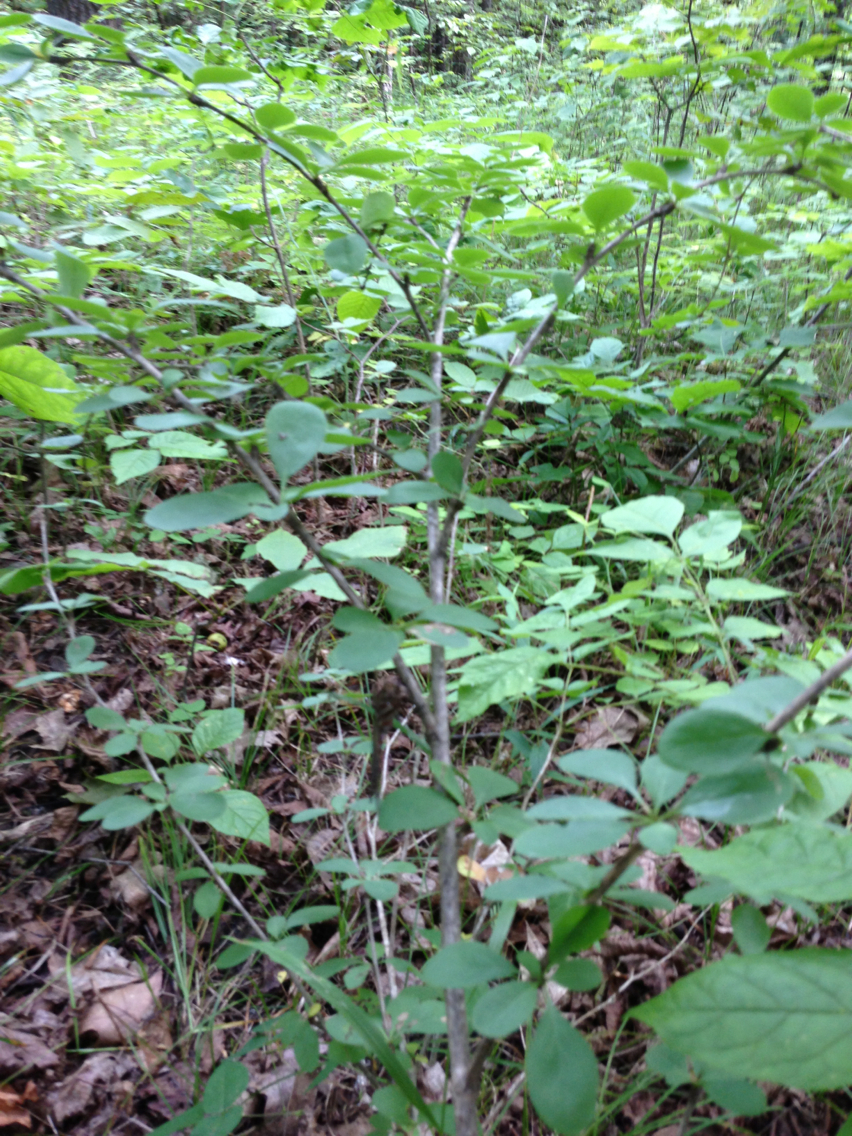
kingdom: Plantae
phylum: Tracheophyta
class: Magnoliopsida
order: Ranunculales
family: Berberidaceae
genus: Berberis
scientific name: Berberis vulgaris
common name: Barberry
